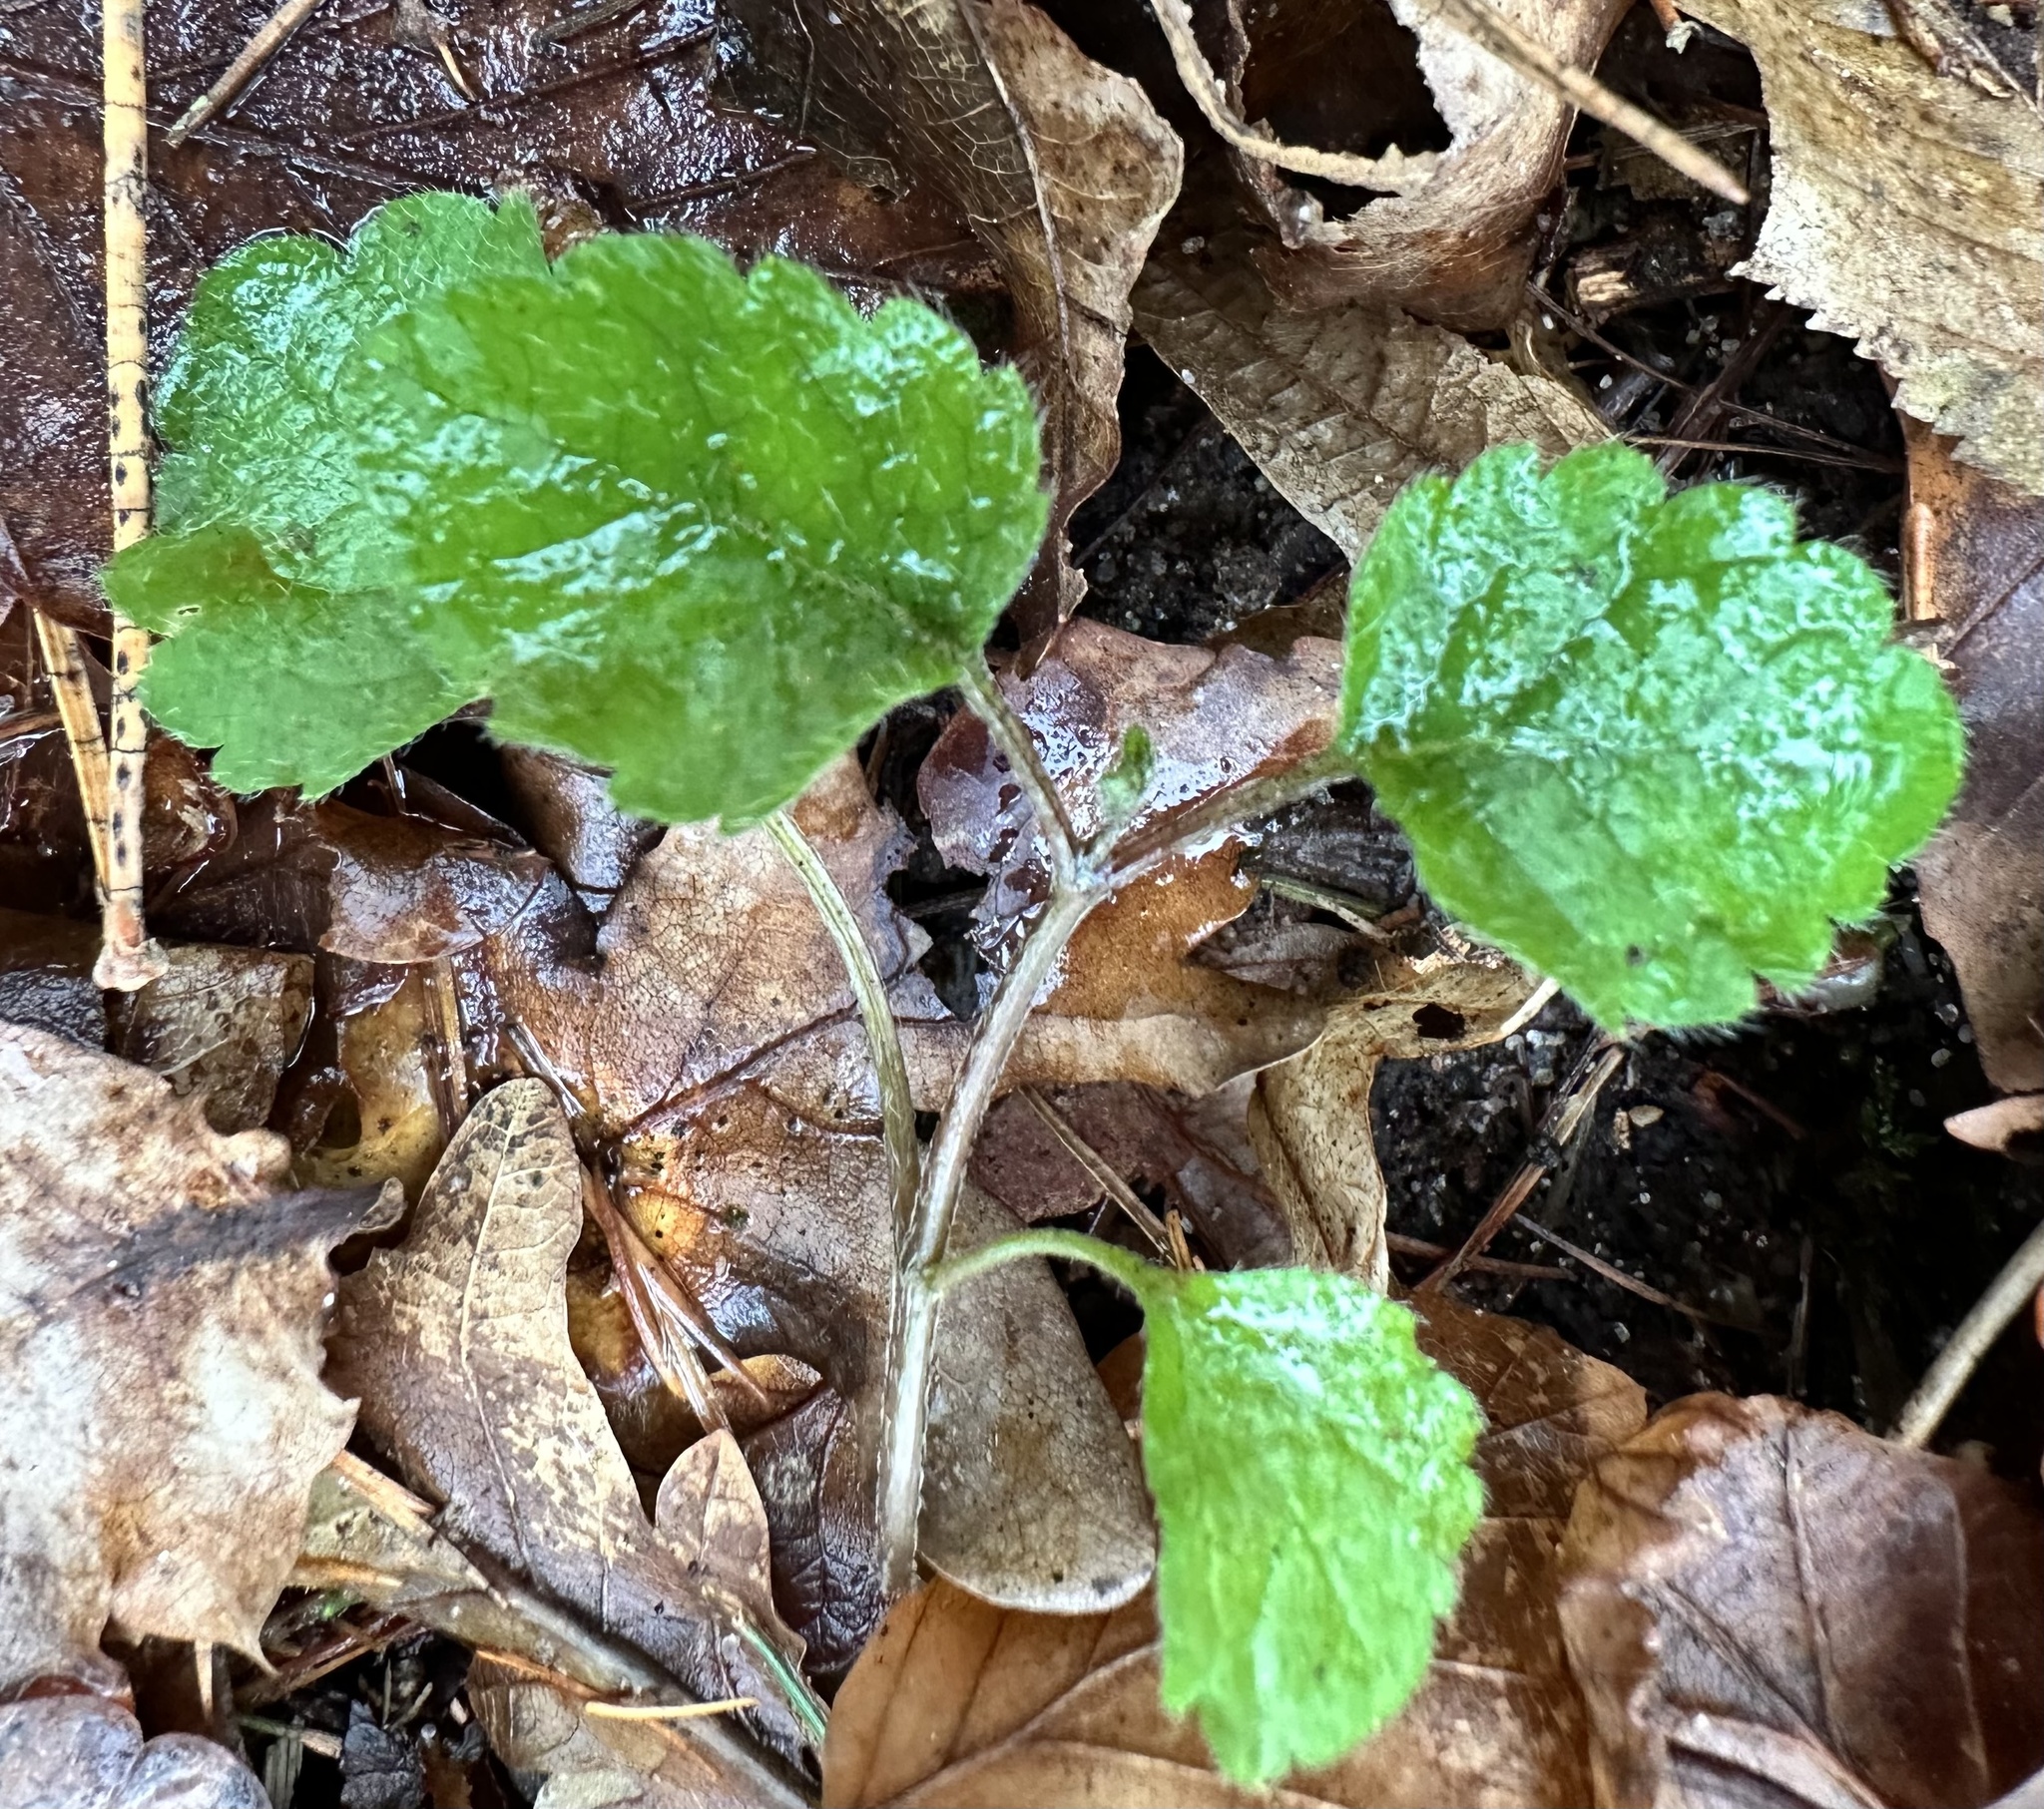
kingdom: Plantae
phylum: Tracheophyta
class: Magnoliopsida
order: Lamiales
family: Lamiaceae
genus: Lamium
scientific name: Lamium galeobdolon
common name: Yellow archangel
